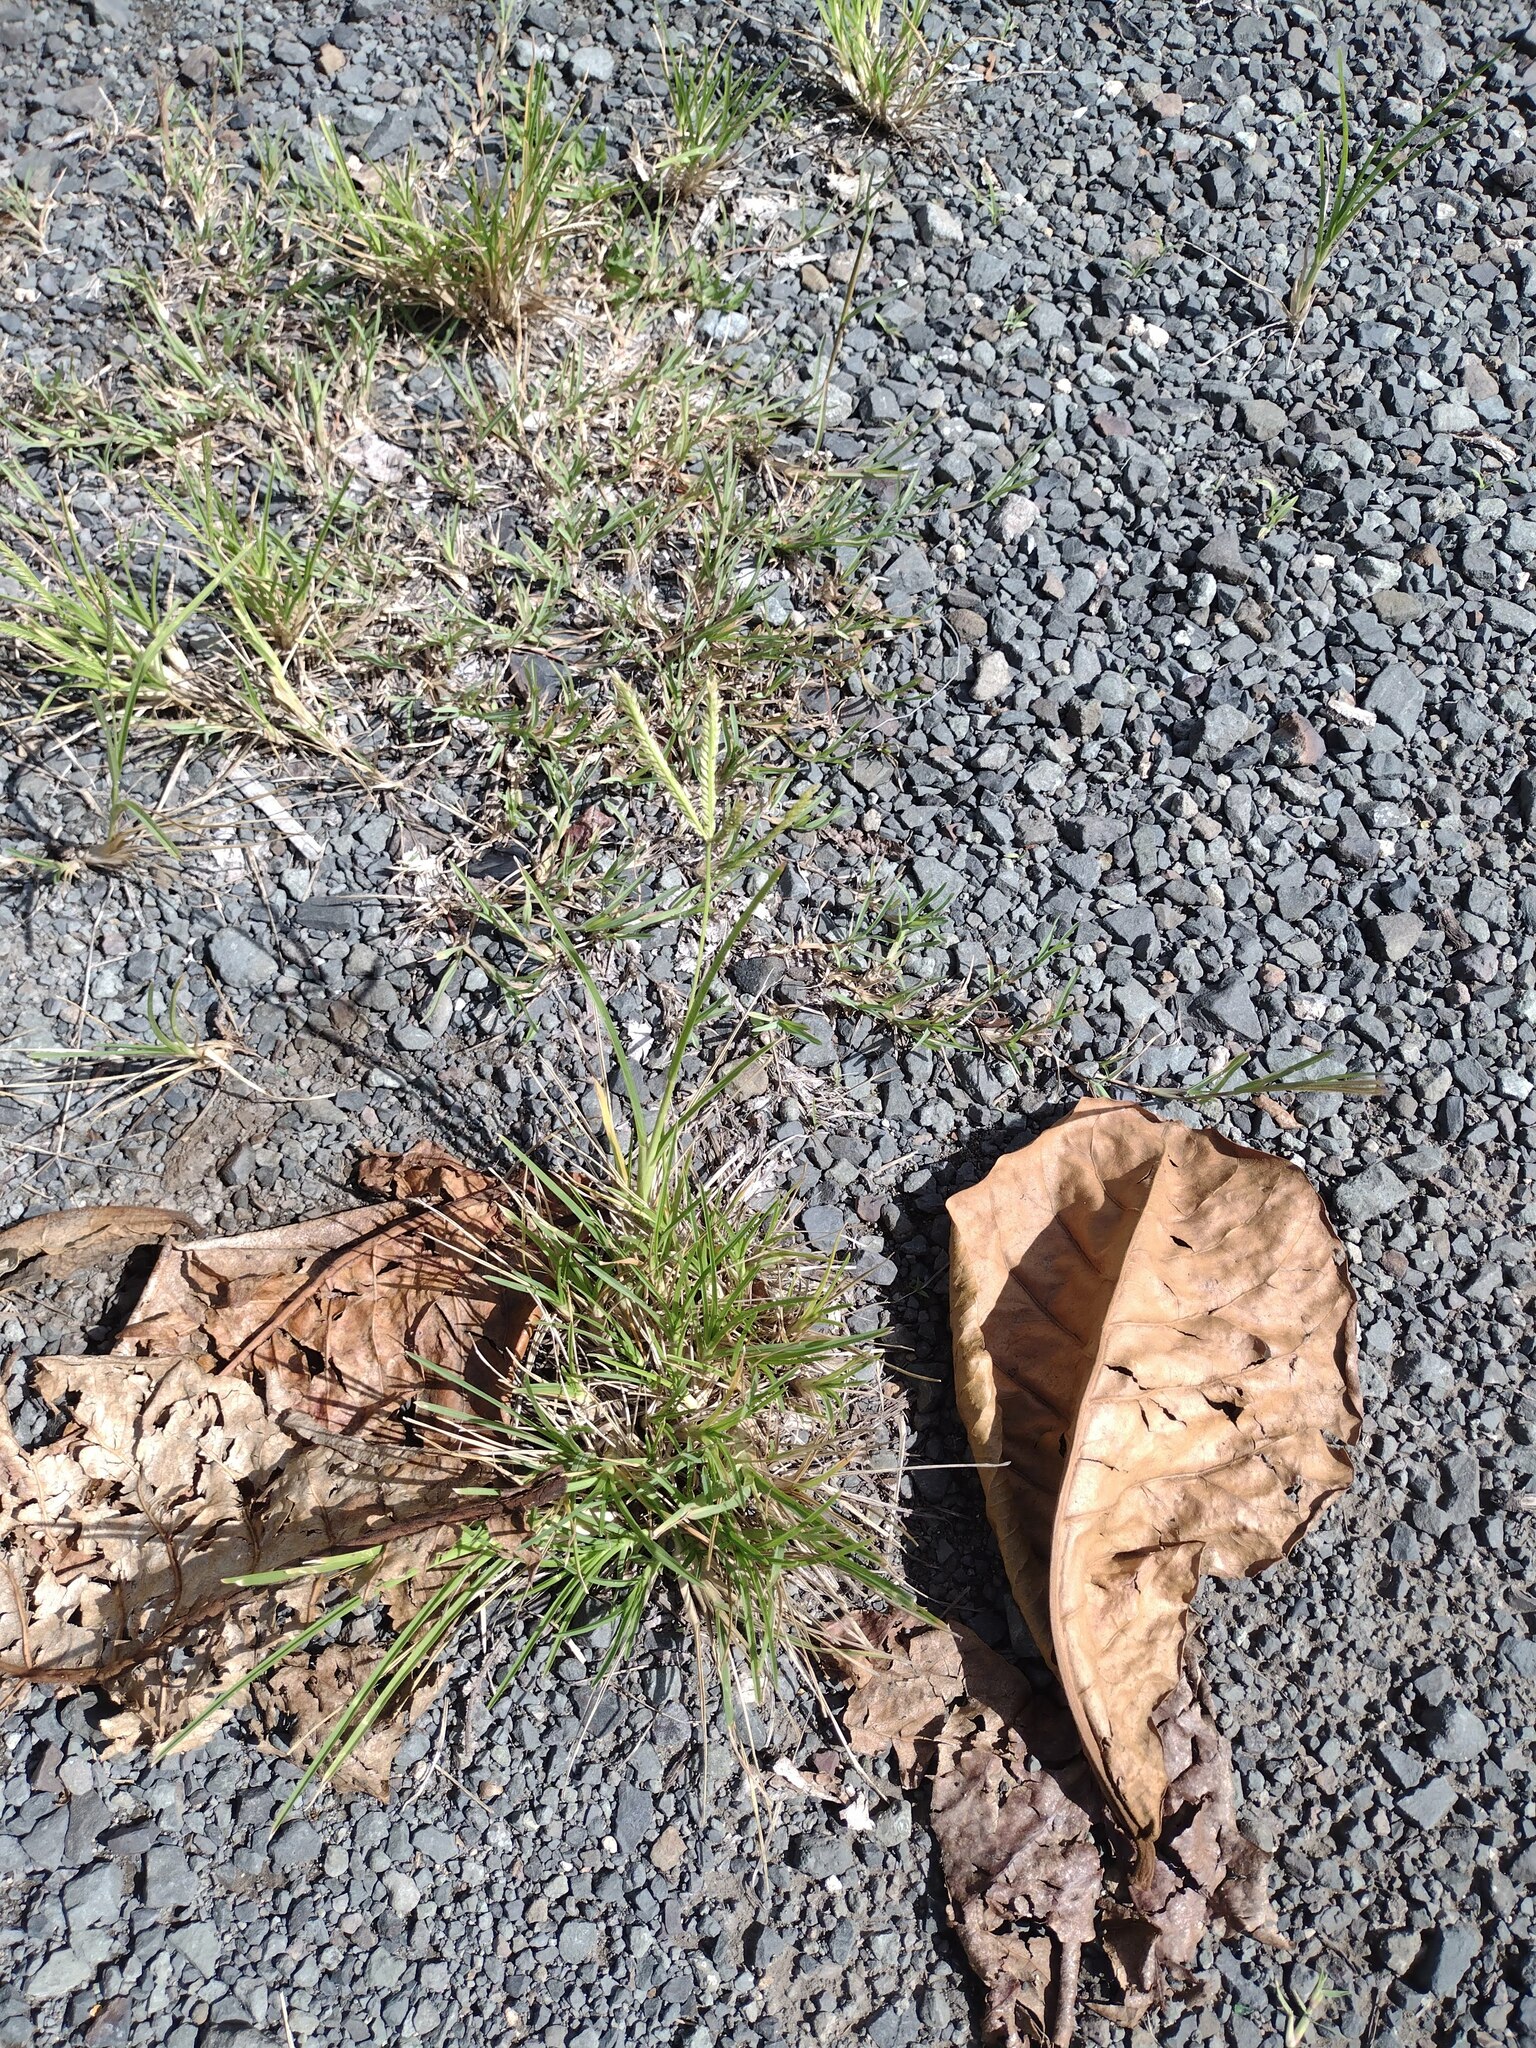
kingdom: Plantae
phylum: Tracheophyta
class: Liliopsida
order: Poales
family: Poaceae
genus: Eleusine
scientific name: Eleusine indica
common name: Yard-grass
